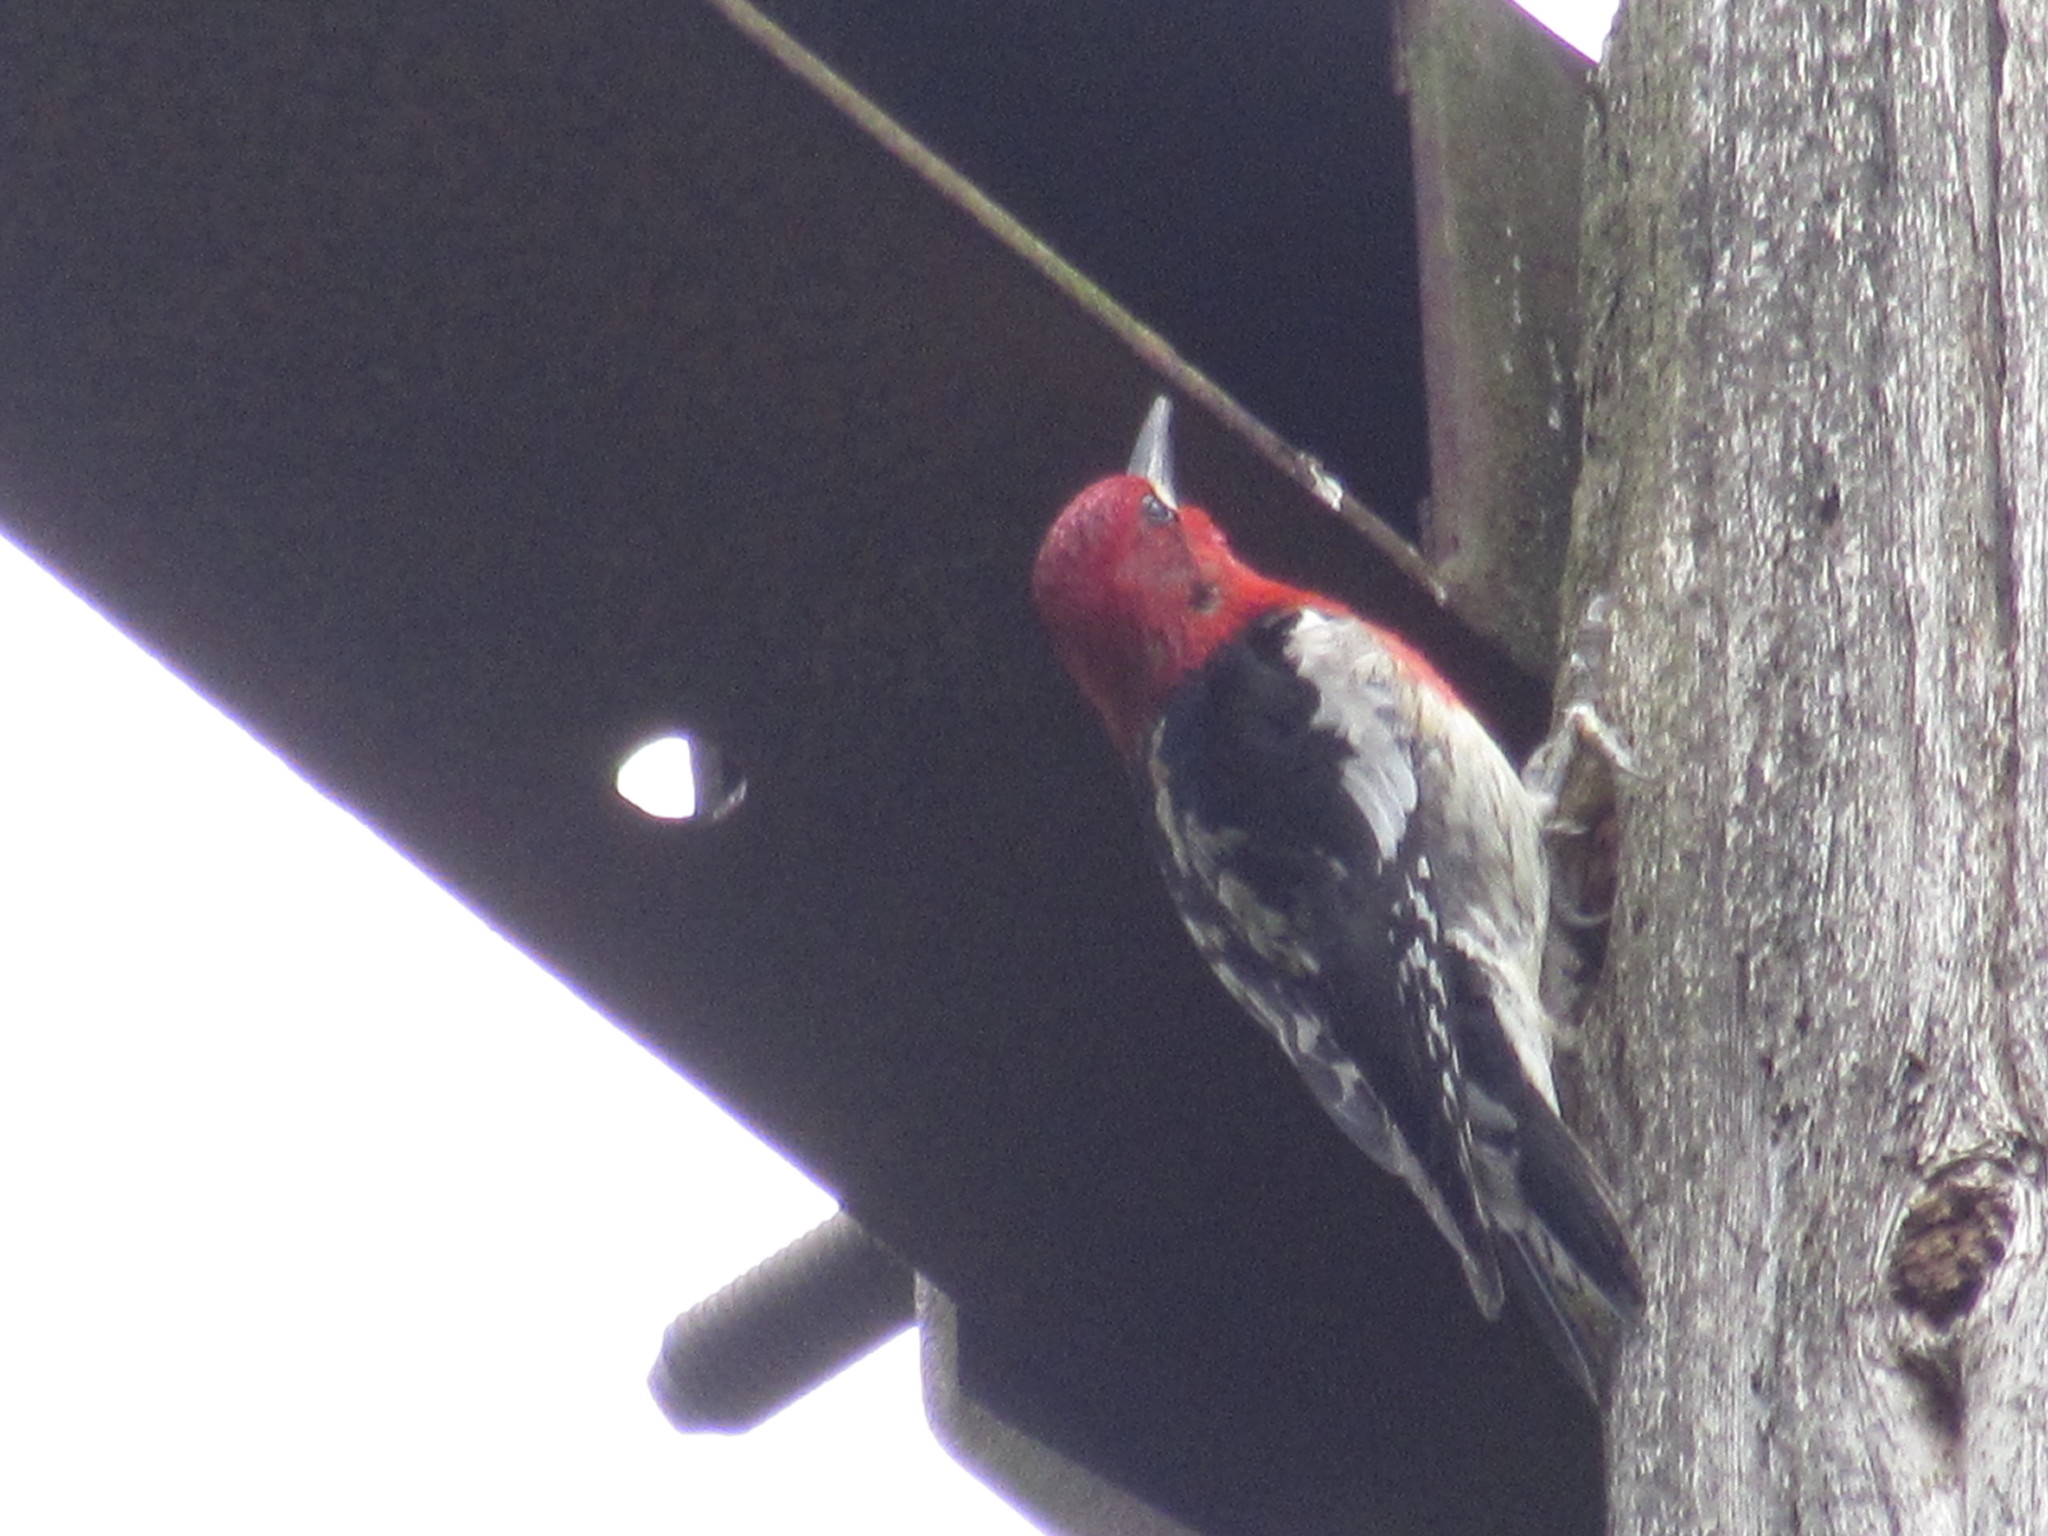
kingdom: Animalia
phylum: Chordata
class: Aves
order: Piciformes
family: Picidae
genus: Sphyrapicus
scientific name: Sphyrapicus ruber
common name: Red-breasted sapsucker
